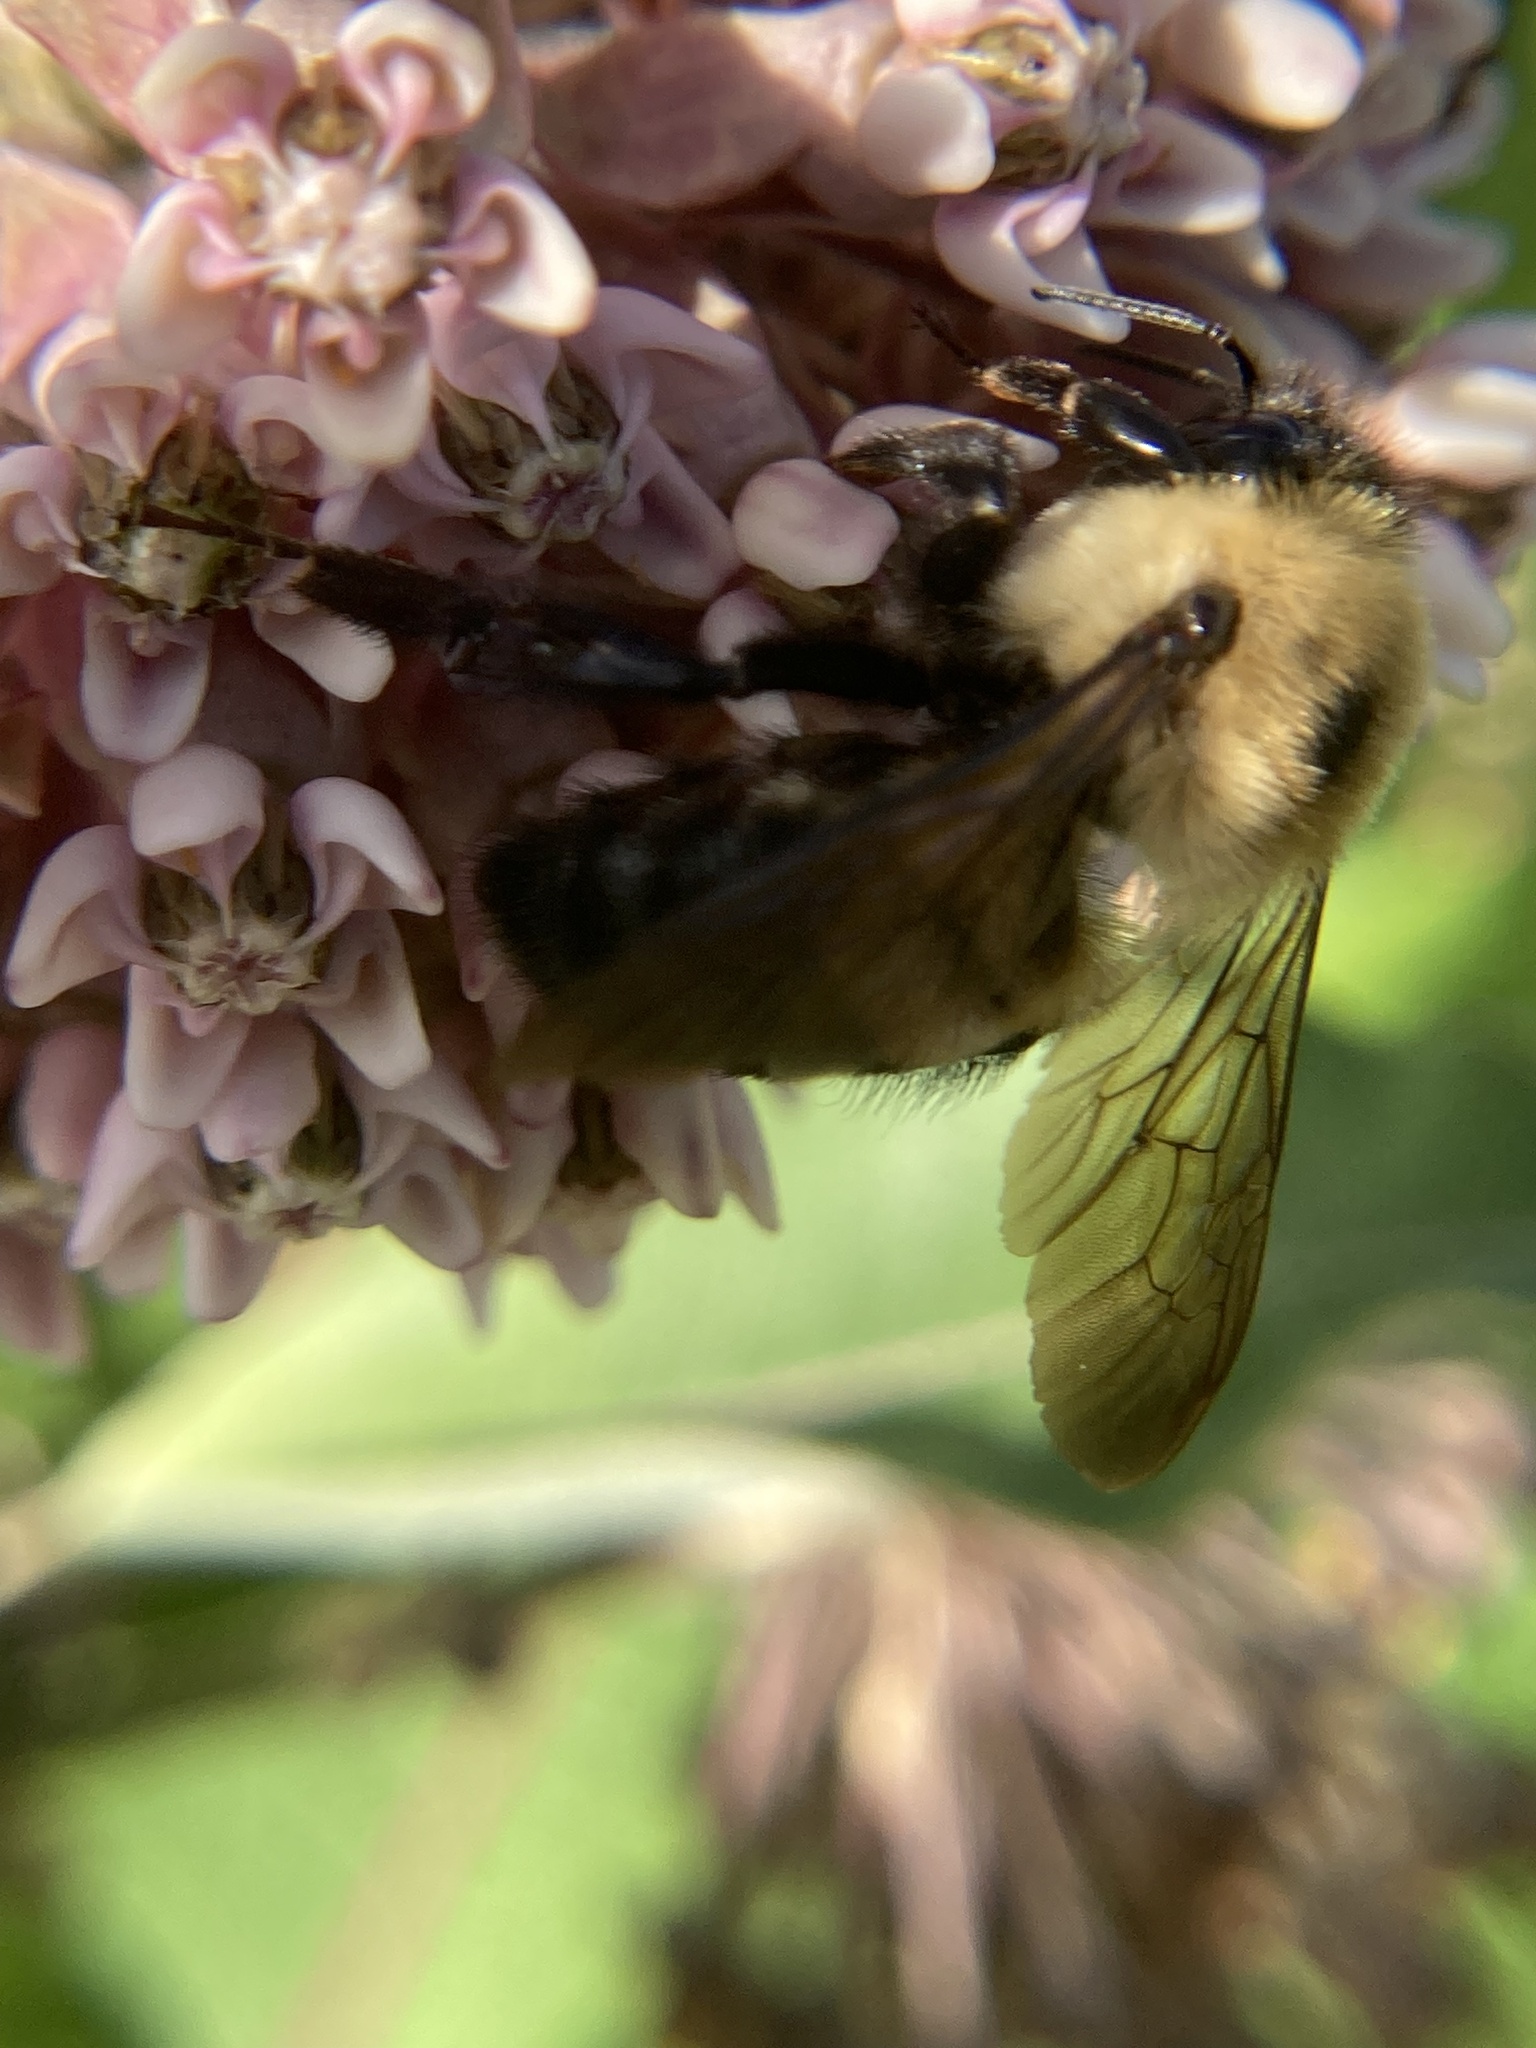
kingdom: Animalia
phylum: Arthropoda
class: Insecta
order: Hymenoptera
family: Apidae
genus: Bombus
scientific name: Bombus griseocollis
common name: Brown-belted bumble bee
